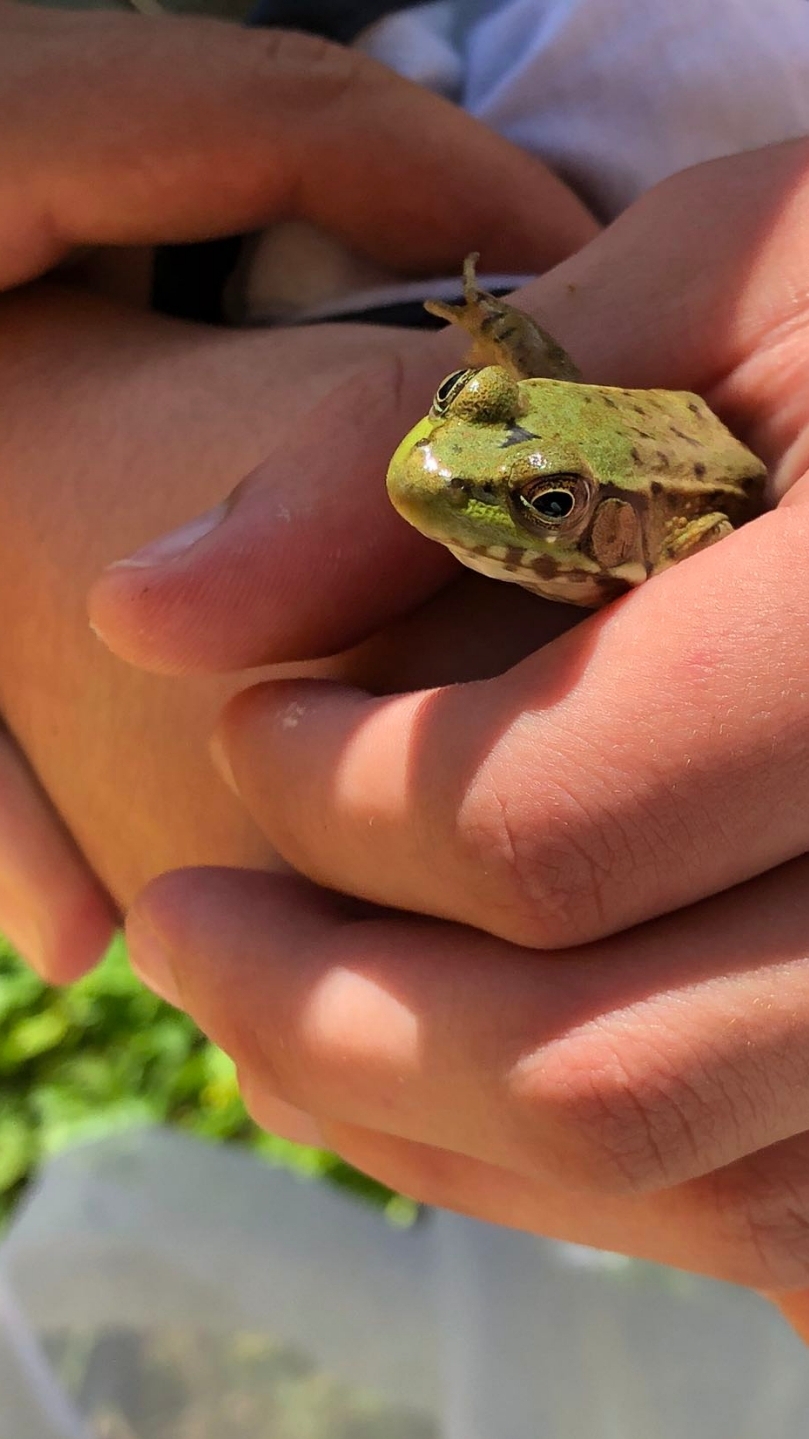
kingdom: Animalia
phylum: Chordata
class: Amphibia
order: Anura
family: Ranidae
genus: Lithobates
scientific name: Lithobates clamitans
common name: Green frog
